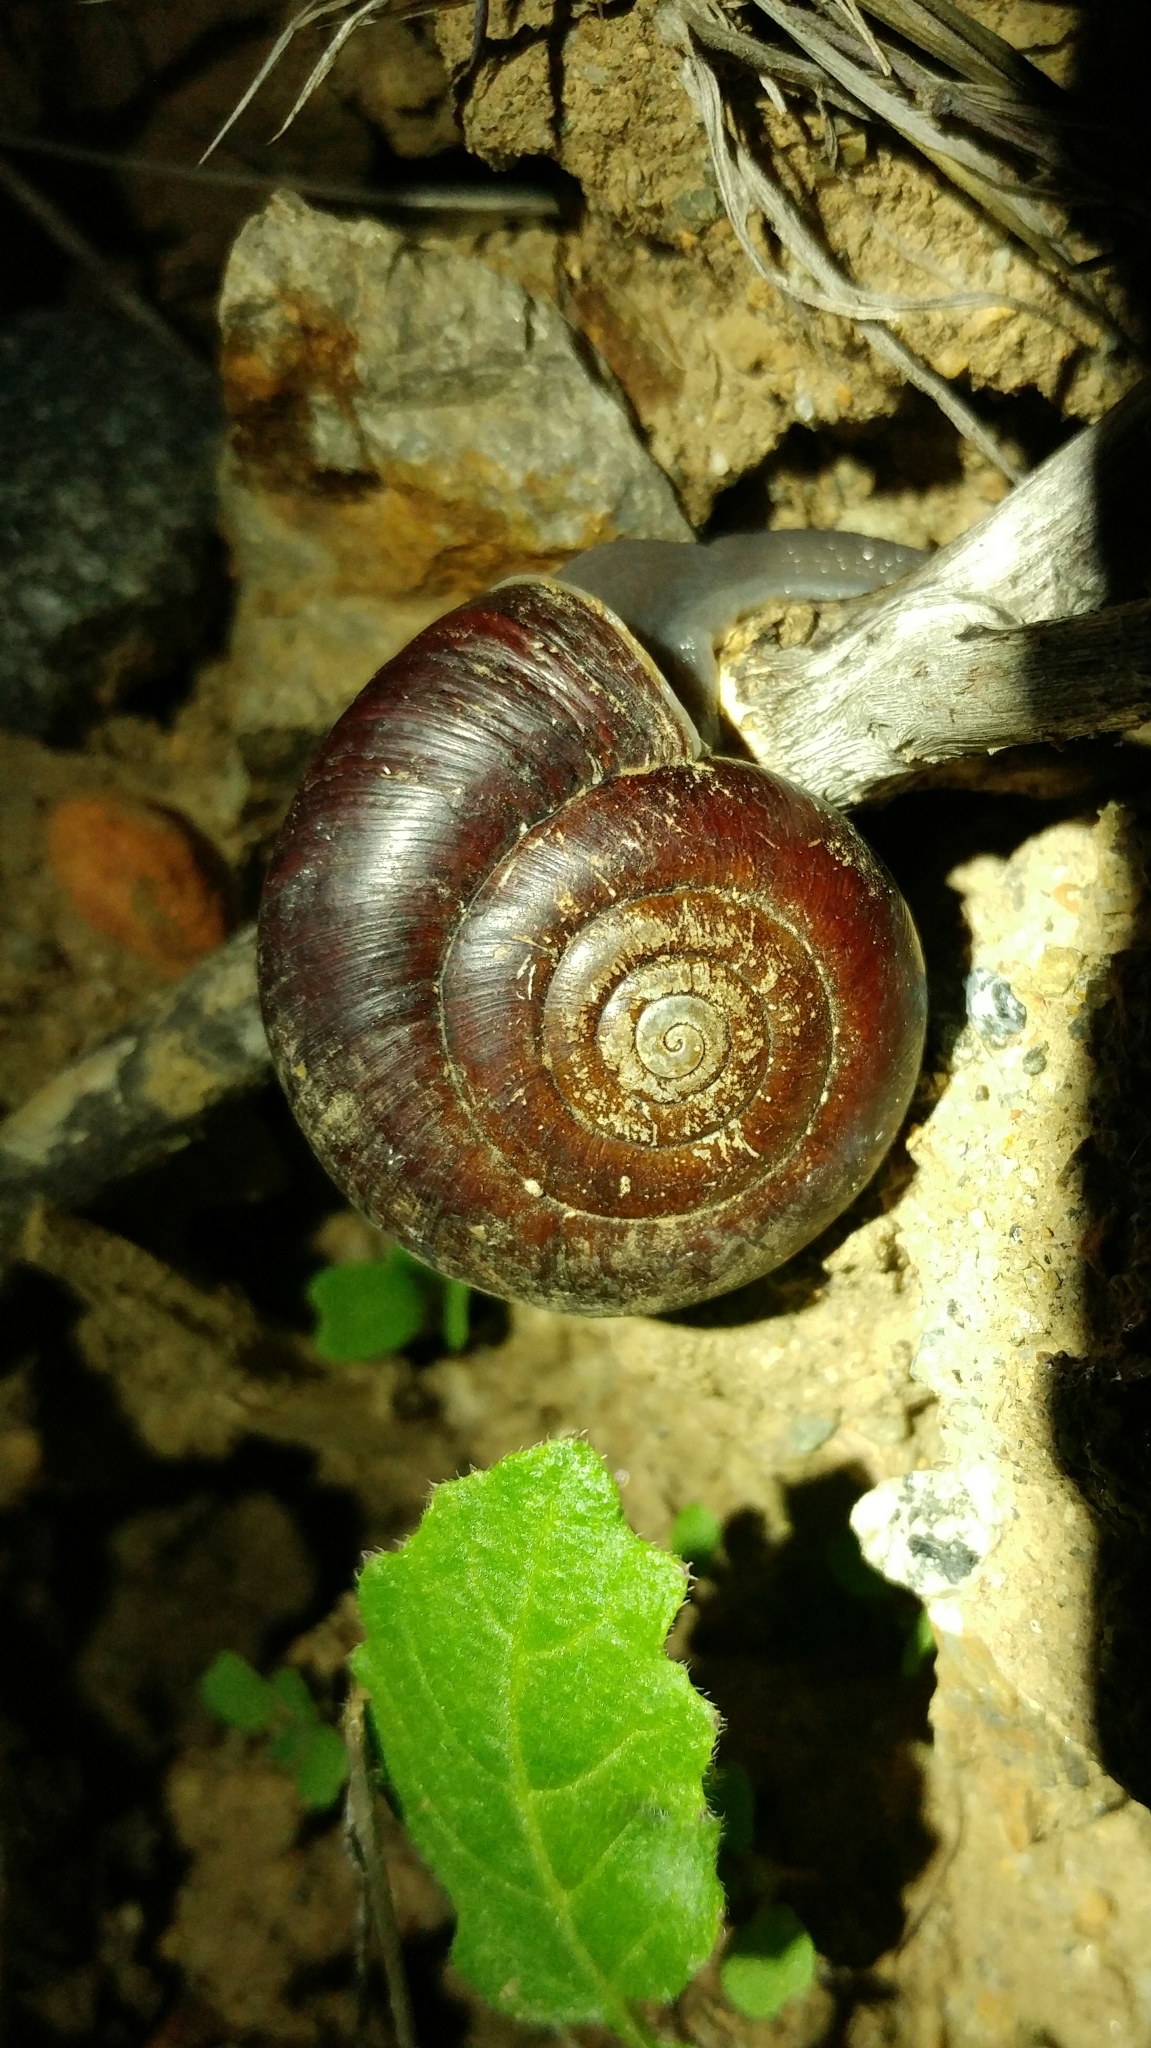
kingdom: Animalia
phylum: Mollusca
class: Gastropoda
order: Stylommatophora
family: Megomphicidae
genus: Glyptostoma
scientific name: Glyptostoma newberryanum
